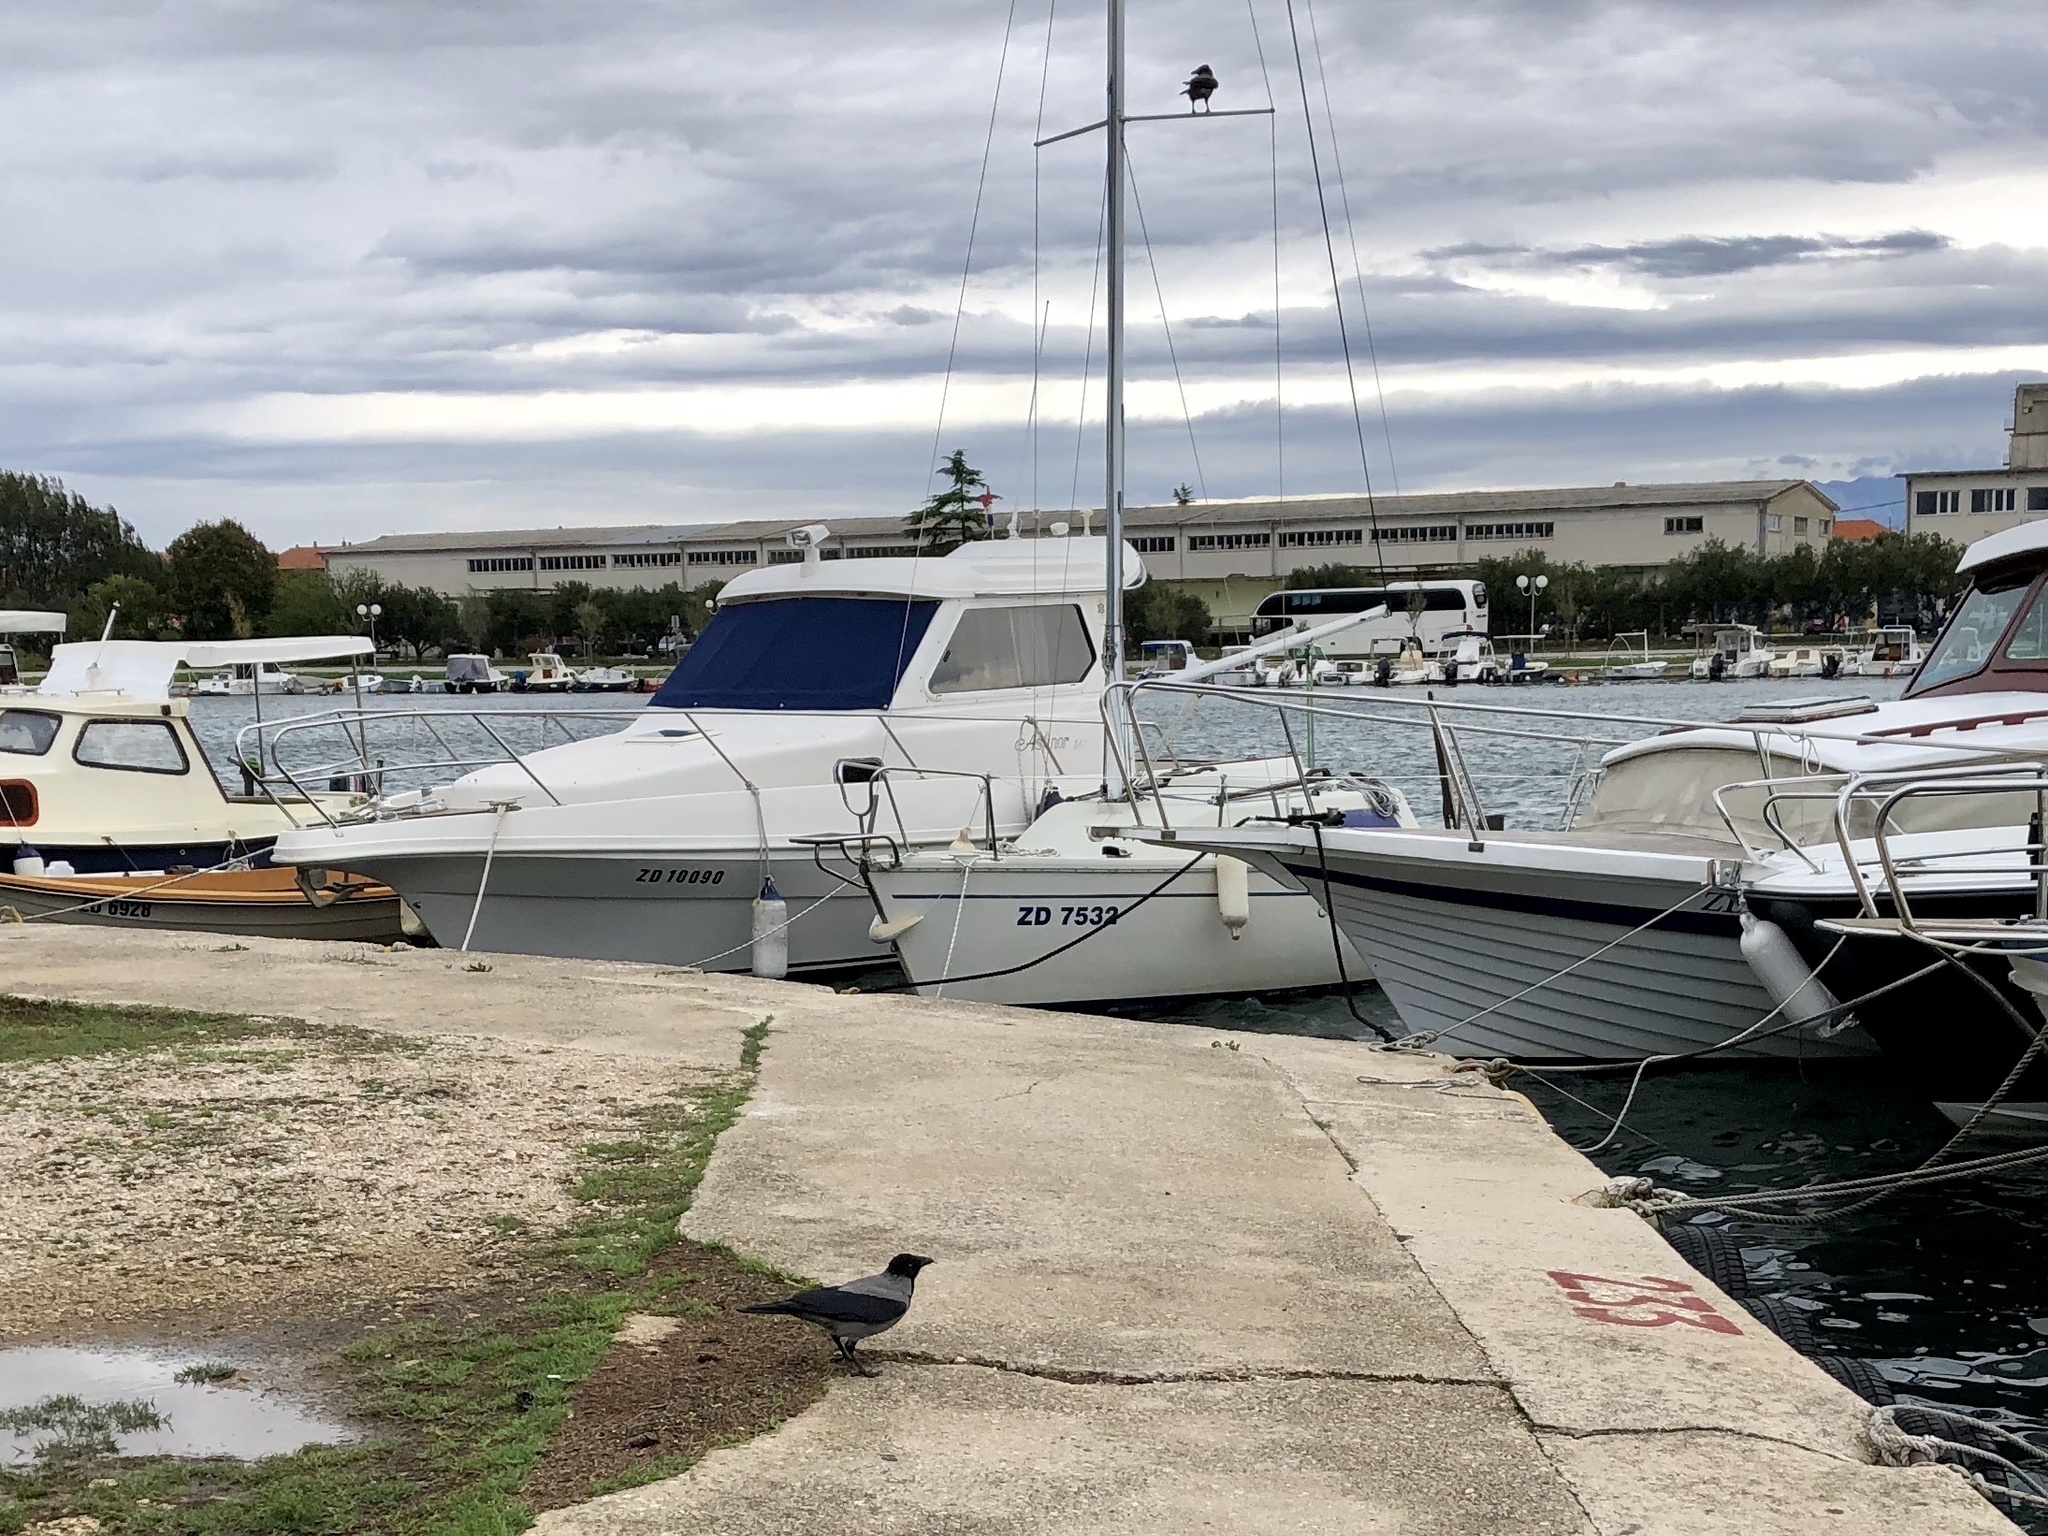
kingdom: Animalia
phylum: Chordata
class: Aves
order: Passeriformes
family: Corvidae
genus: Corvus
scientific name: Corvus cornix
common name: Hooded crow
